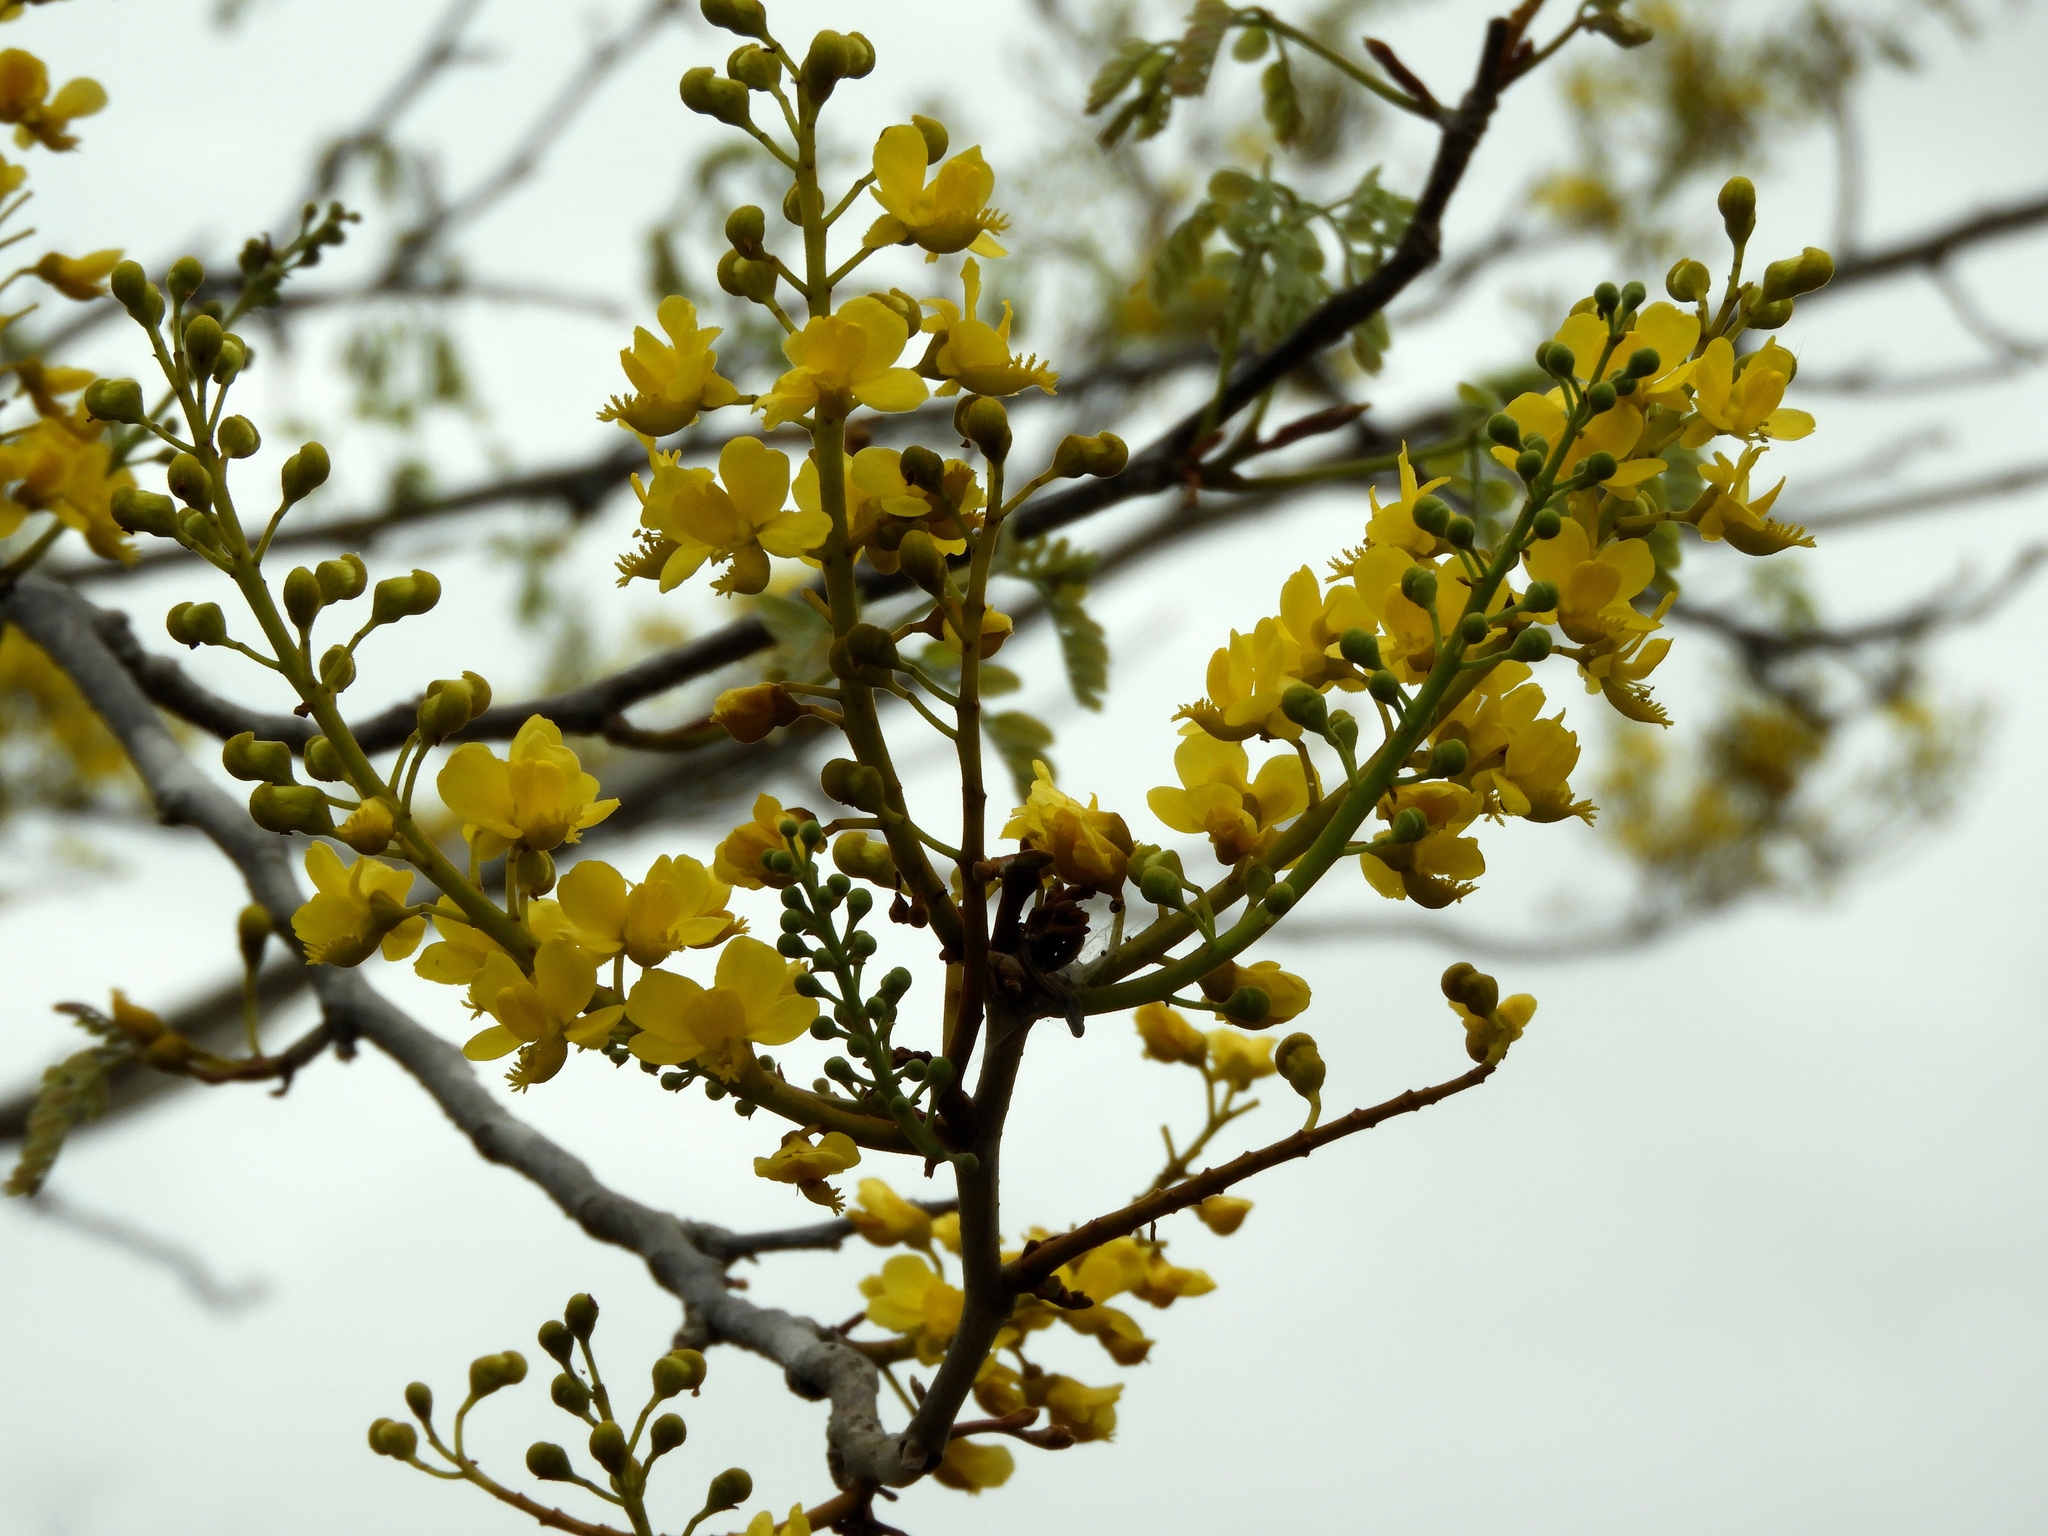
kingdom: Plantae
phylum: Tracheophyta
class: Magnoliopsida
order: Fabales
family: Fabaceae
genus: Coulteria
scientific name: Coulteria platyloba
